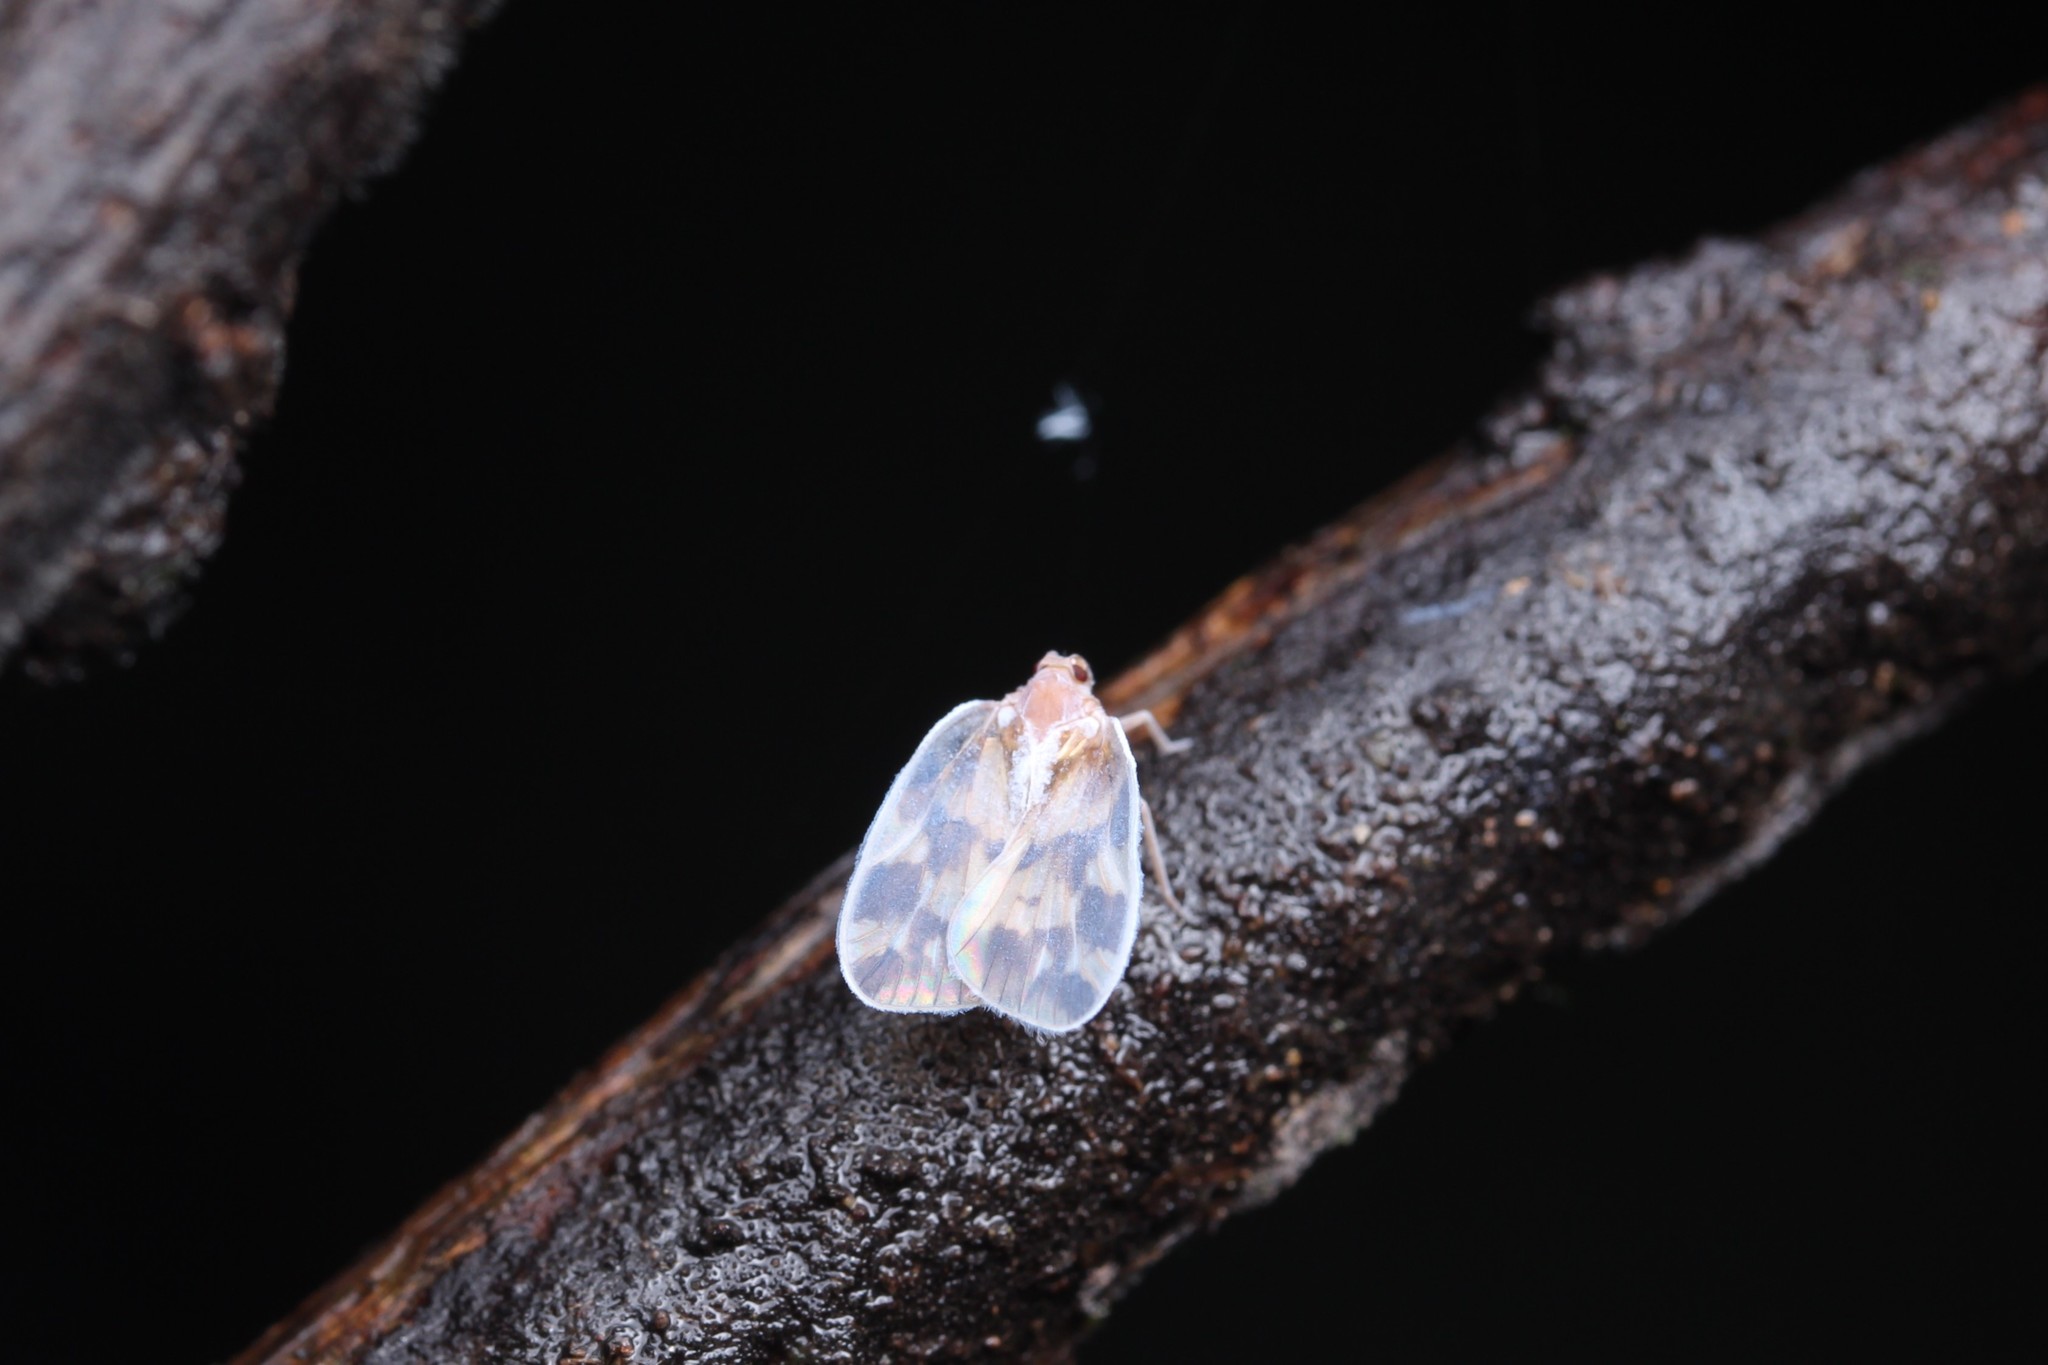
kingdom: Animalia
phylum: Arthropoda
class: Insecta
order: Hemiptera
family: Cixiidae
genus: Borysthenes
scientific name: Borysthenes emarginatus
